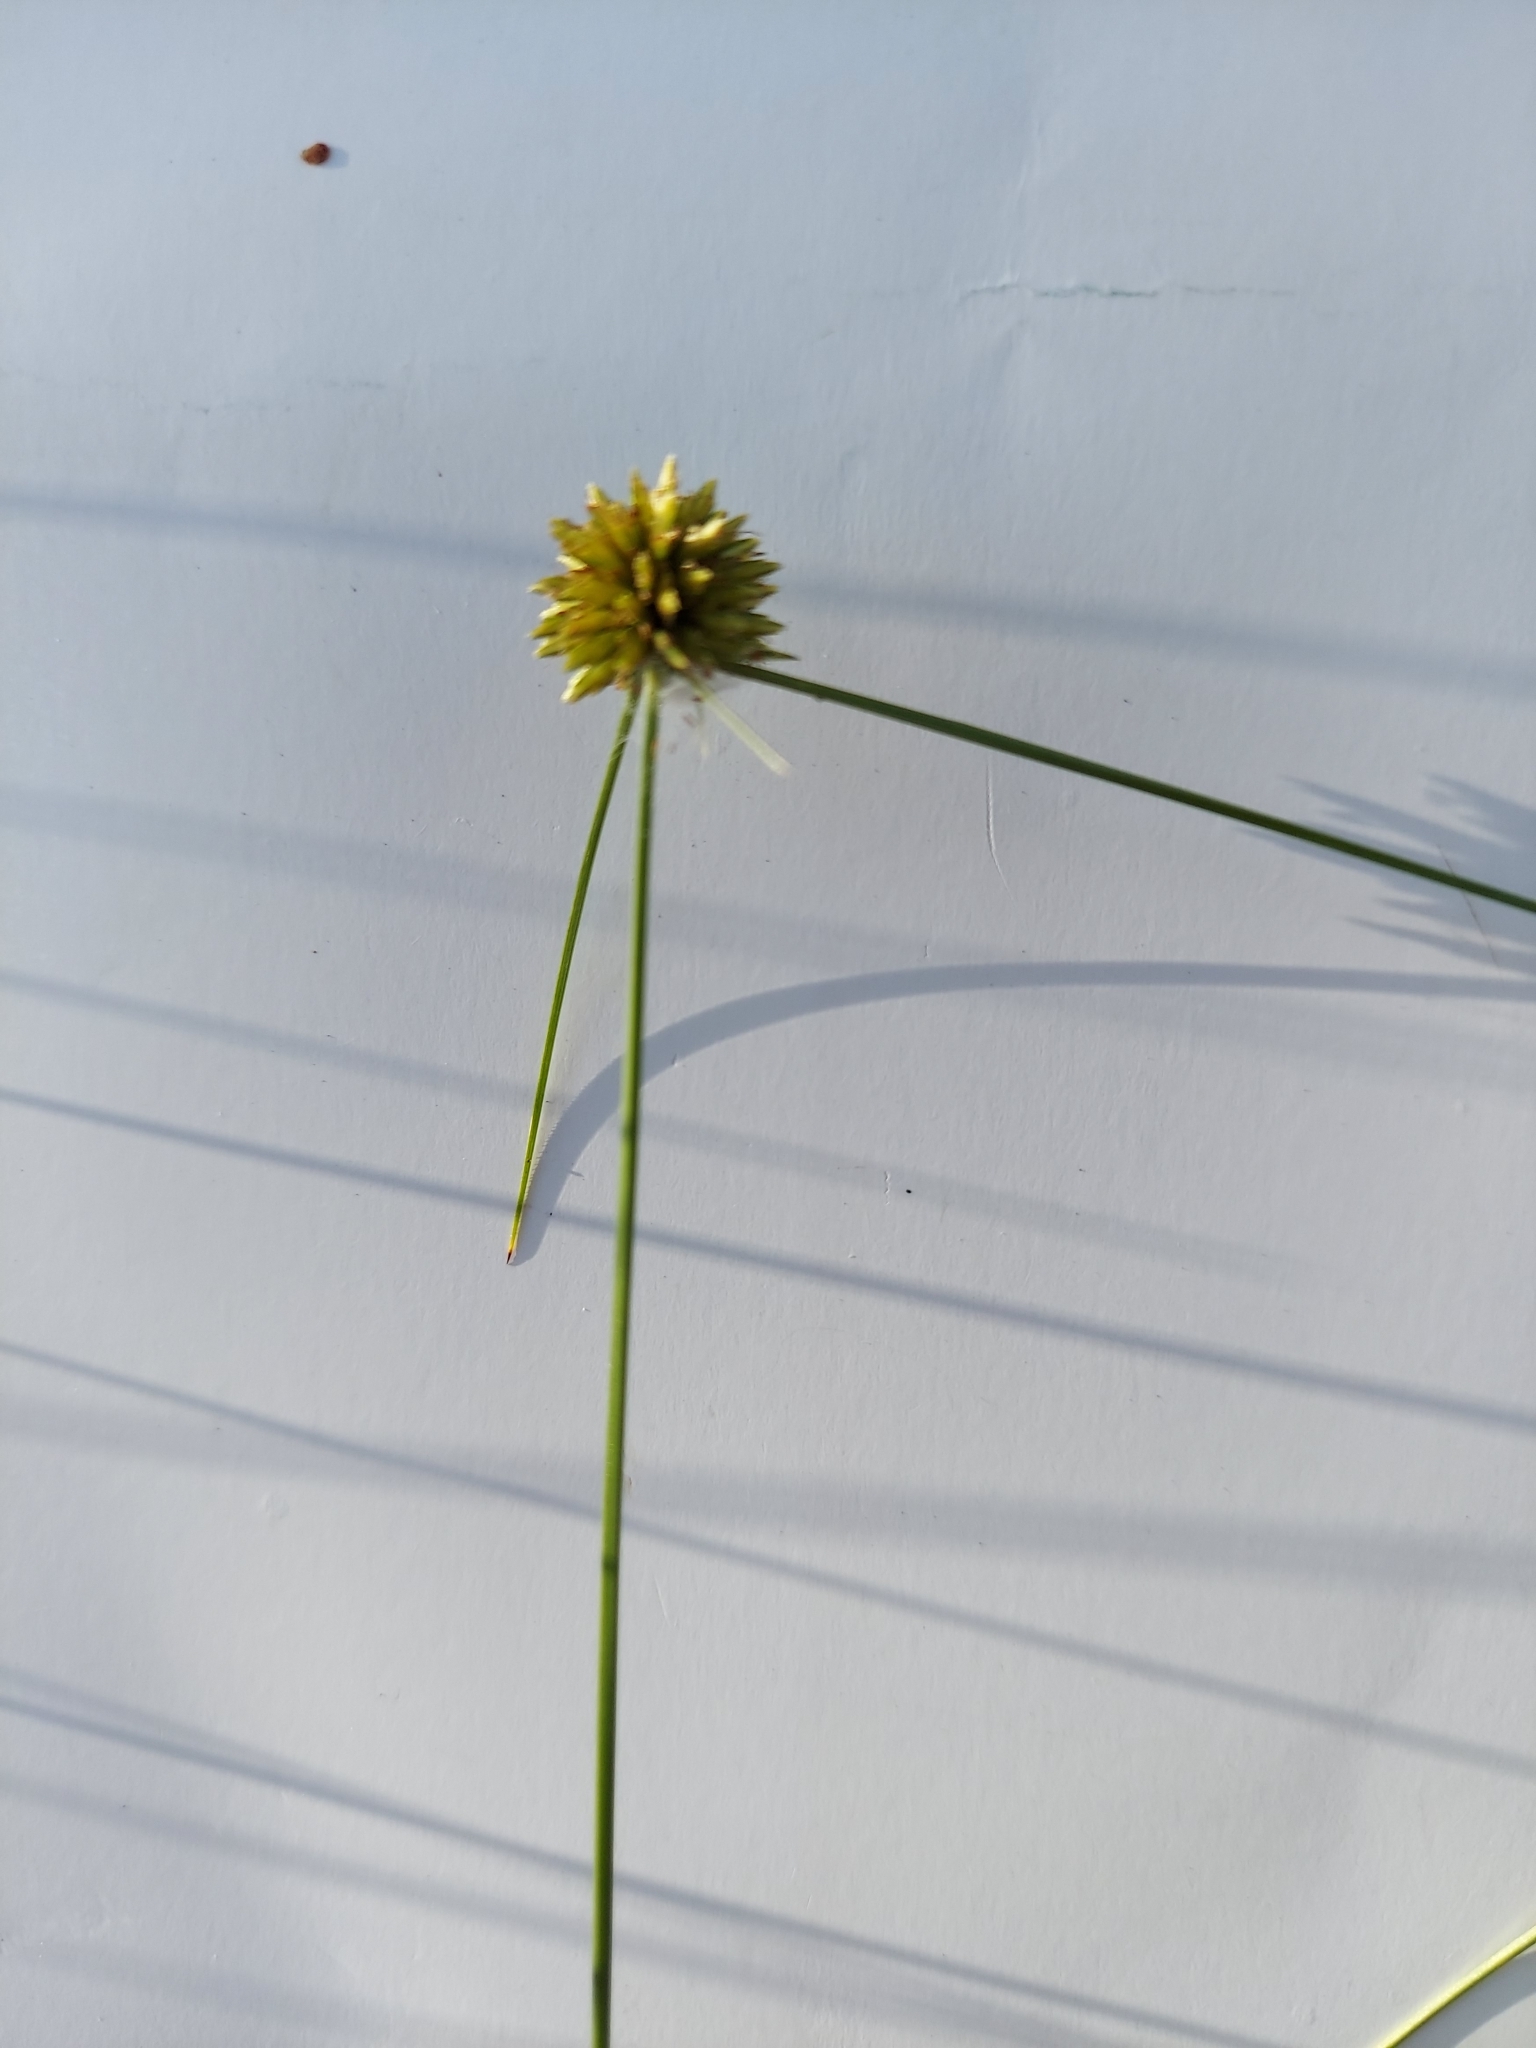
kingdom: Plantae
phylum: Tracheophyta
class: Liliopsida
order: Poales
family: Cyperaceae
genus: Cyperus
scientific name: Cyperus filiculmis
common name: Slender sand sedge
